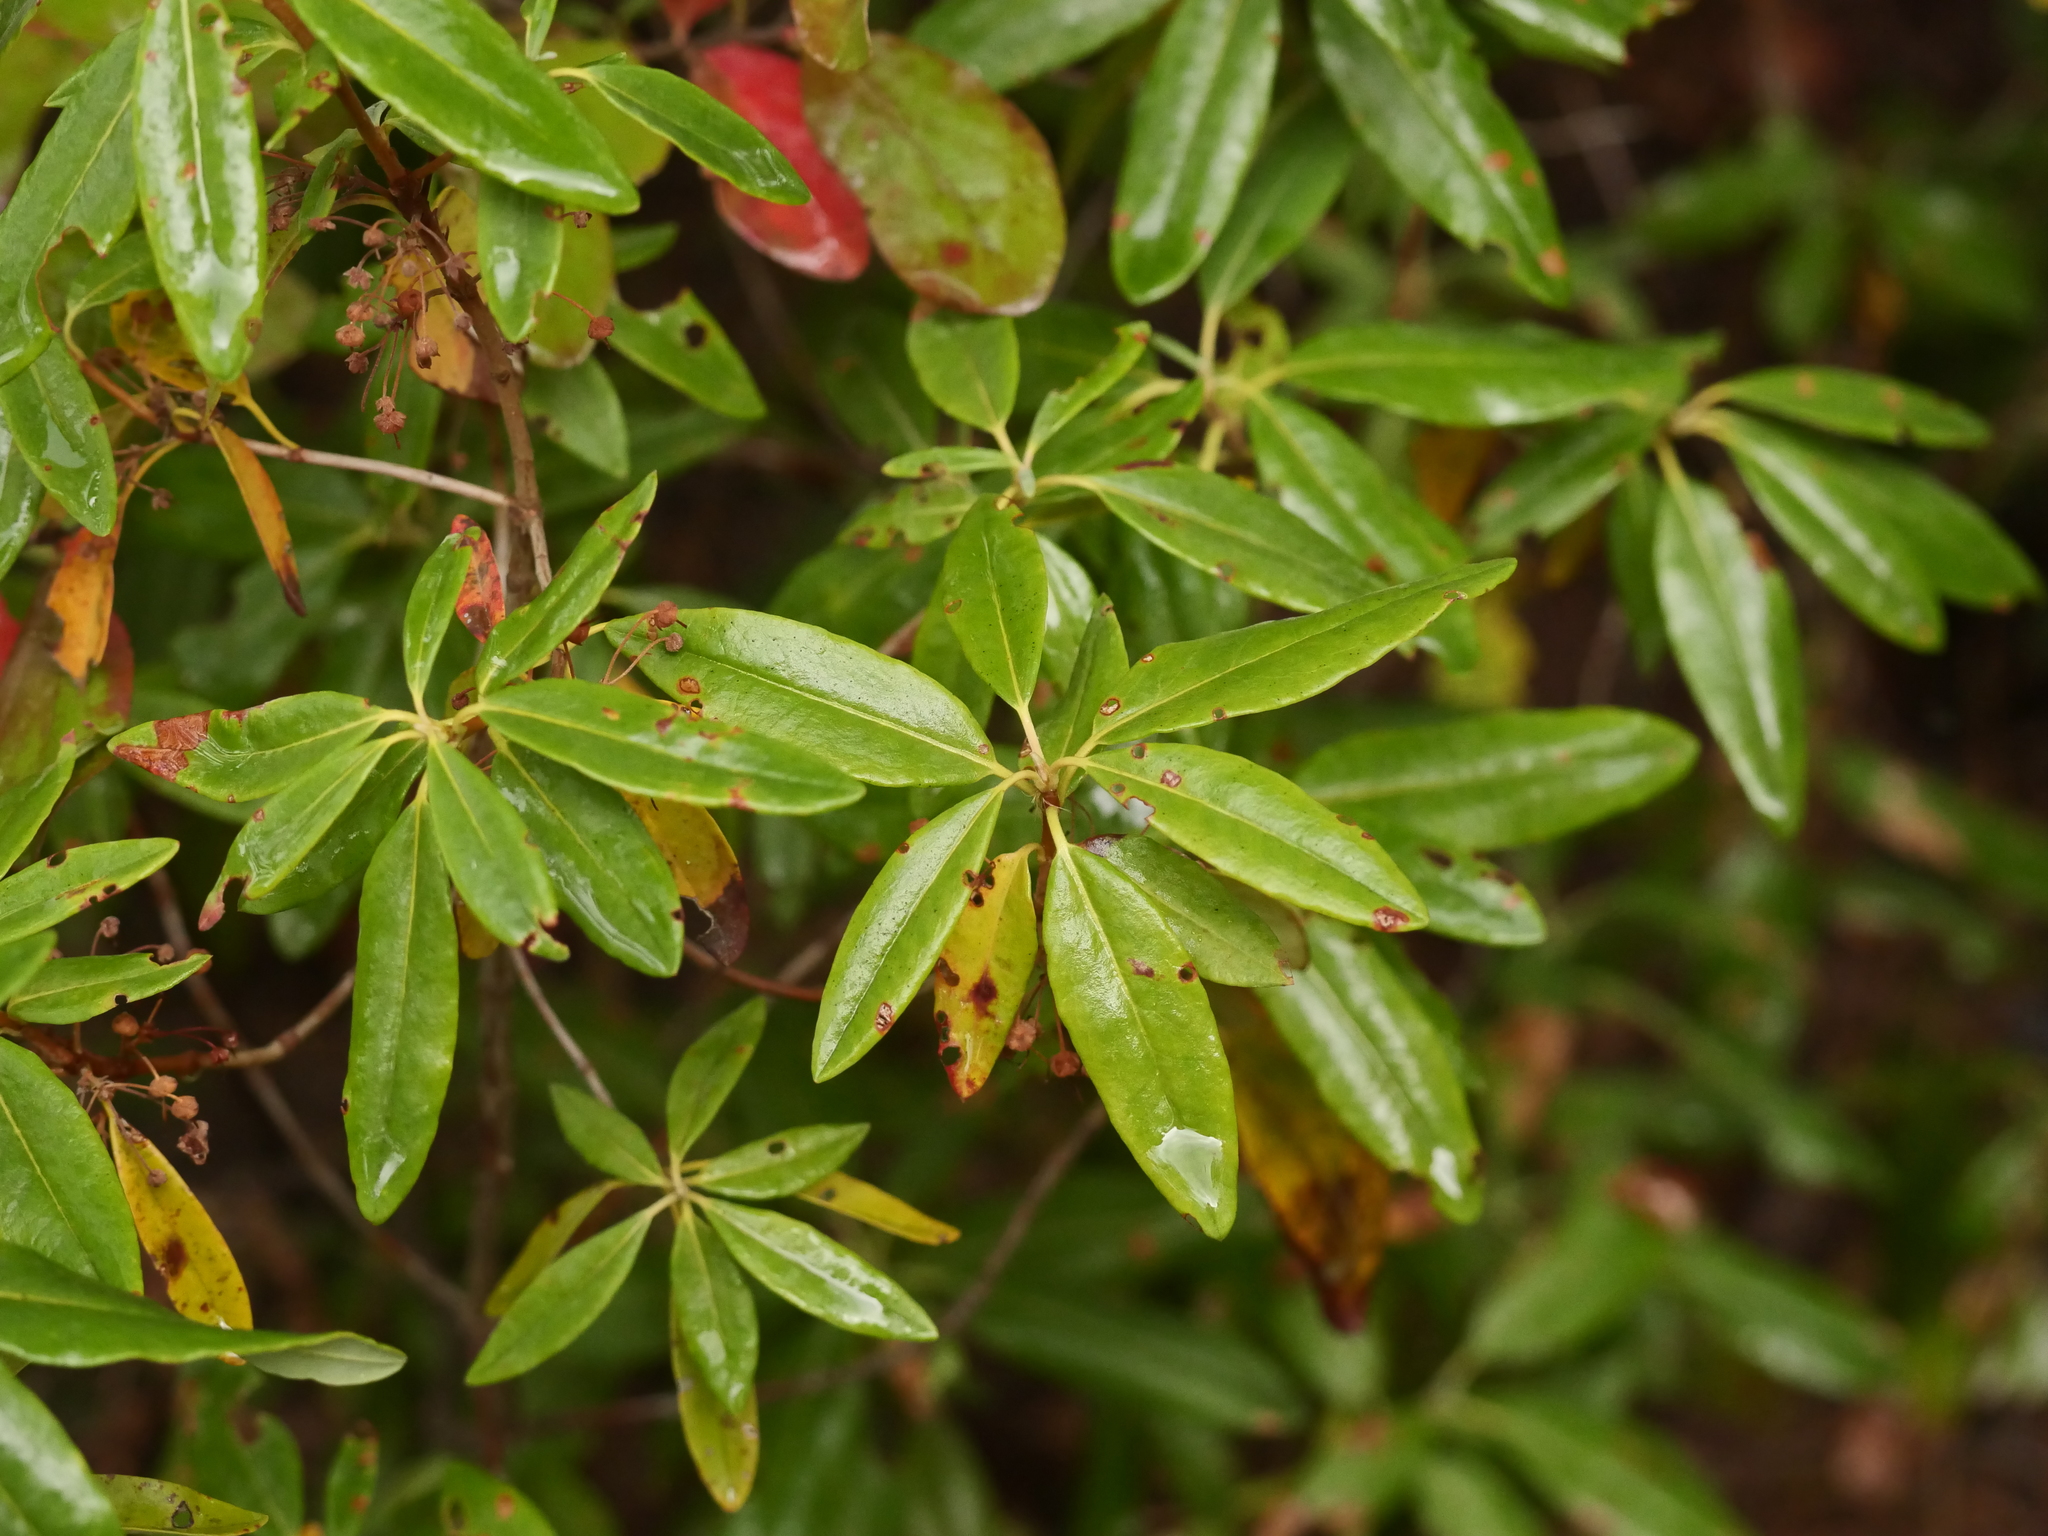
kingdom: Plantae
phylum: Tracheophyta
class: Magnoliopsida
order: Ericales
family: Ericaceae
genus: Kalmia
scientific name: Kalmia angustifolia
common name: Sheep-laurel
